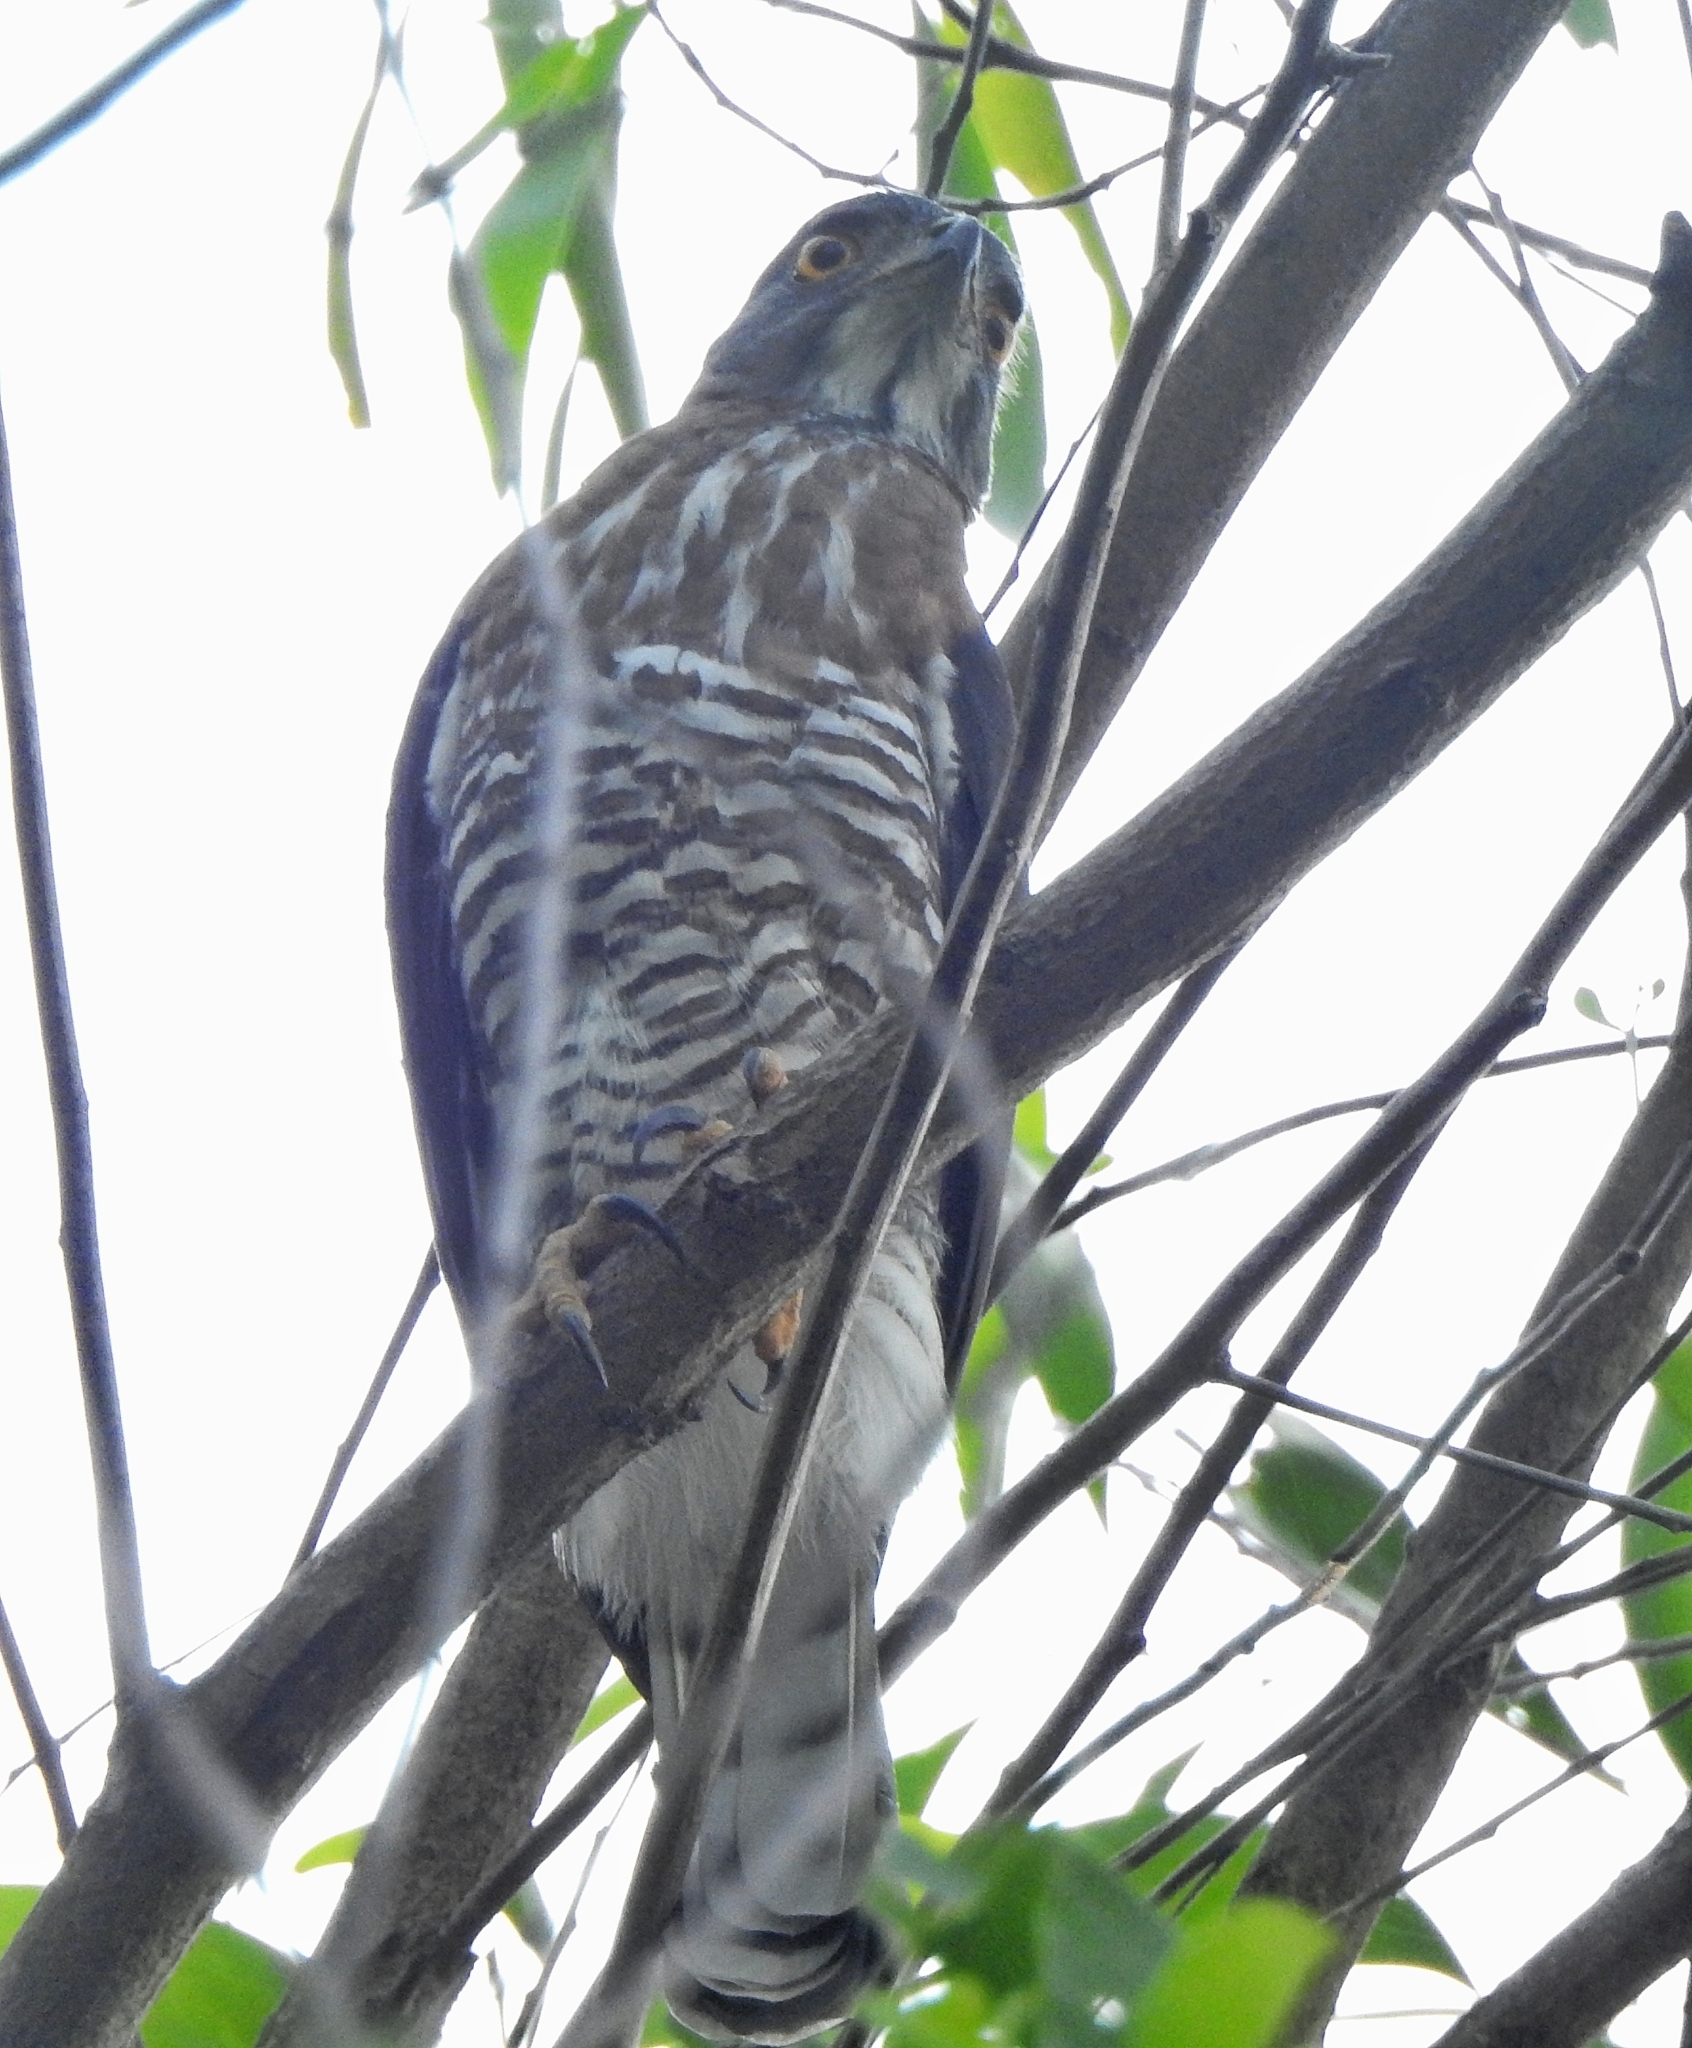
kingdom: Animalia
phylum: Chordata
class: Aves
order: Accipitriformes
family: Accipitridae
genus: Accipiter
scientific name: Accipiter trivirgatus
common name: Crested goshawk
